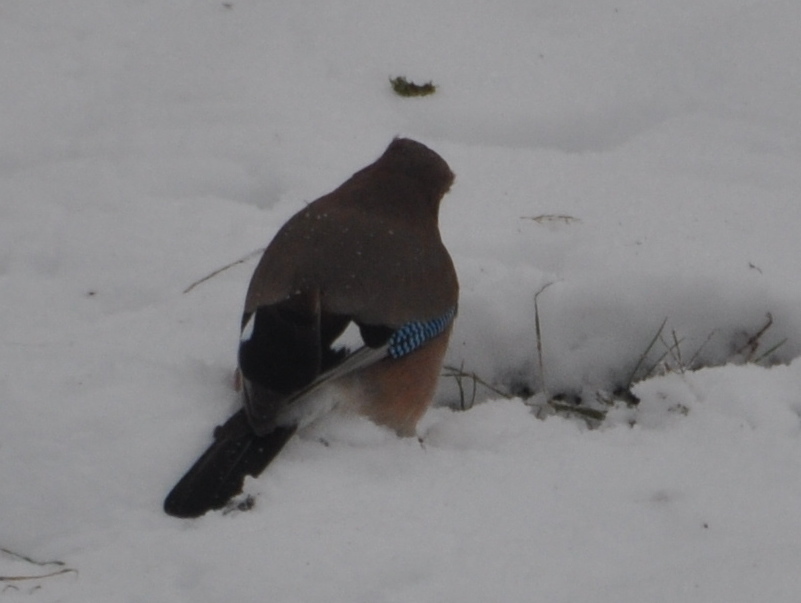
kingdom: Animalia
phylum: Chordata
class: Aves
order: Passeriformes
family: Corvidae
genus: Garrulus
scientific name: Garrulus glandarius
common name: Eurasian jay
